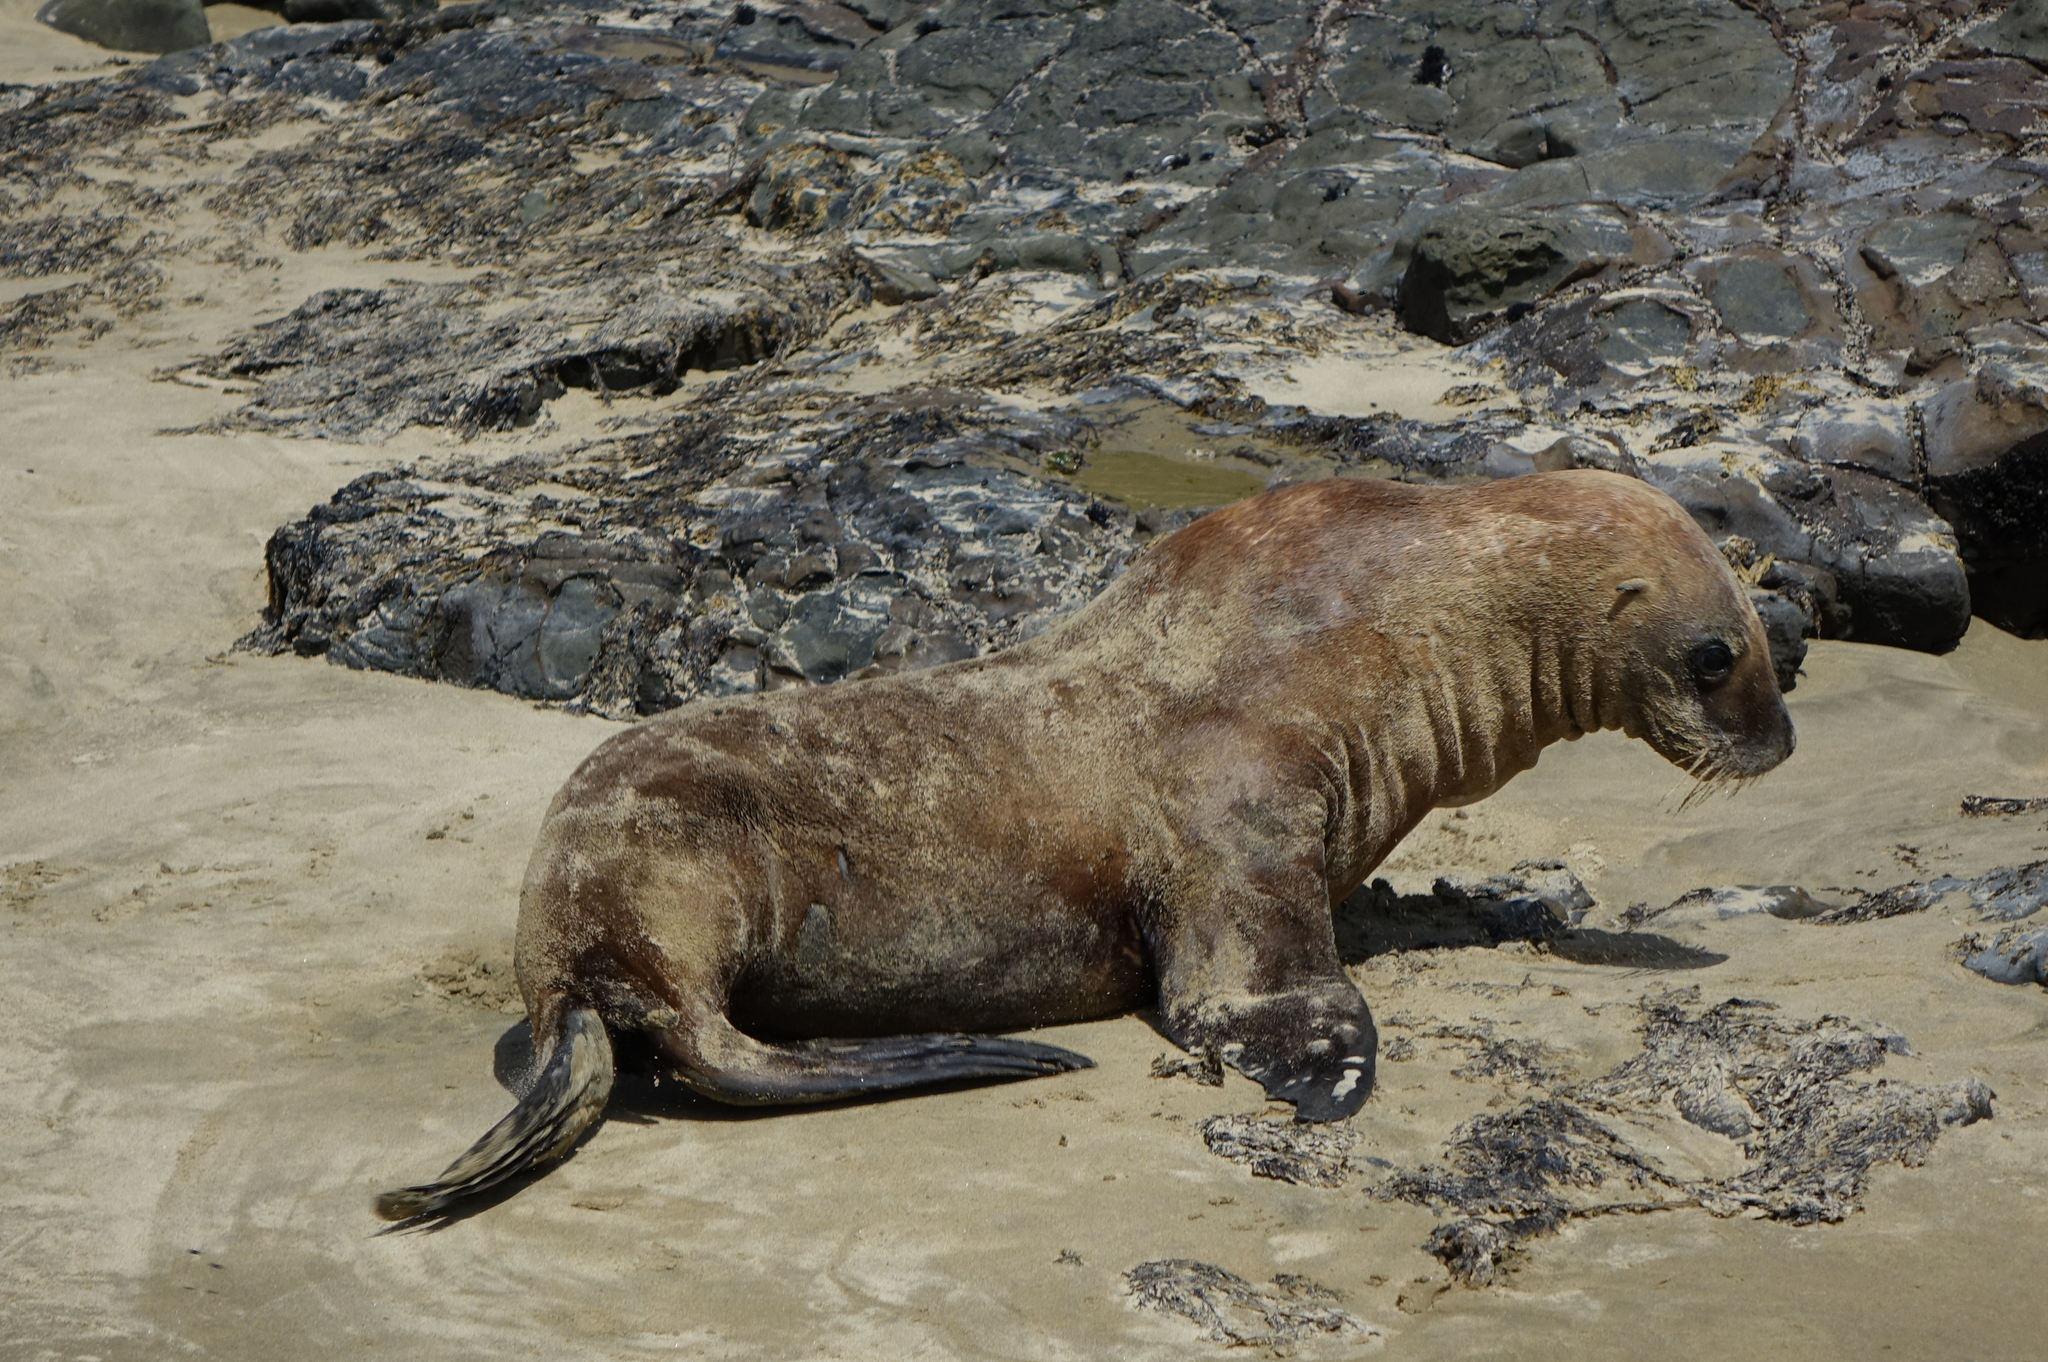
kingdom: Animalia
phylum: Chordata
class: Mammalia
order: Carnivora
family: Otariidae
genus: Phocarctos
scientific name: Phocarctos hookeri
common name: New zealand sea lion
